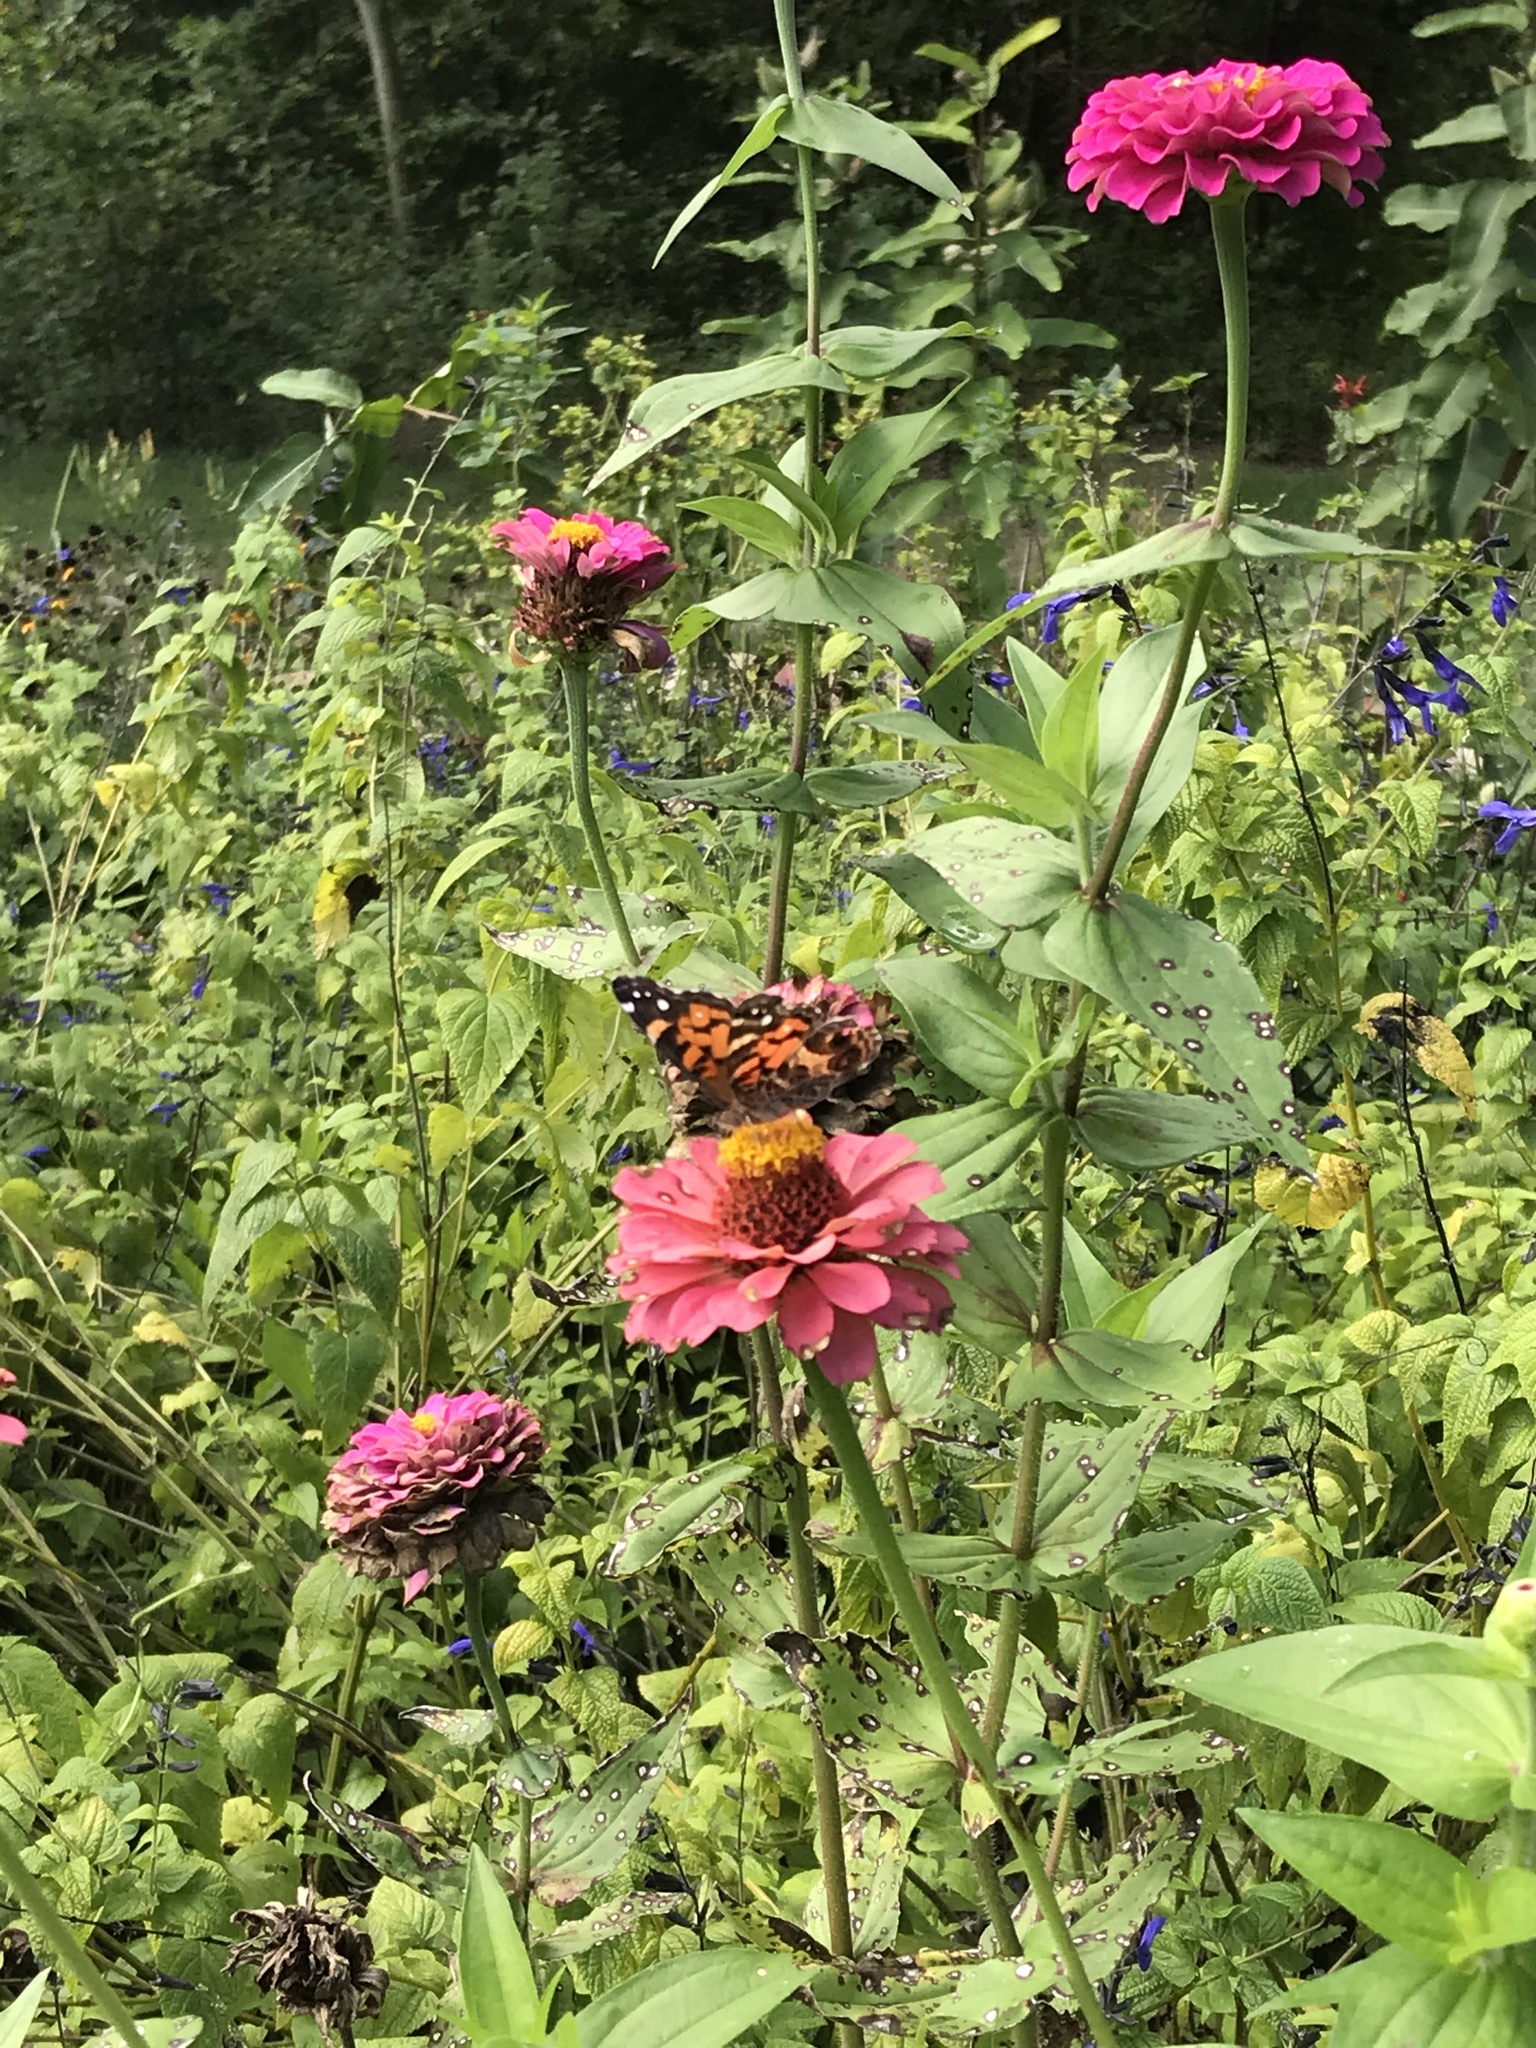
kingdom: Animalia
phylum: Arthropoda
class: Insecta
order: Lepidoptera
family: Nymphalidae
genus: Vanessa
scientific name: Vanessa virginiensis
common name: American lady
